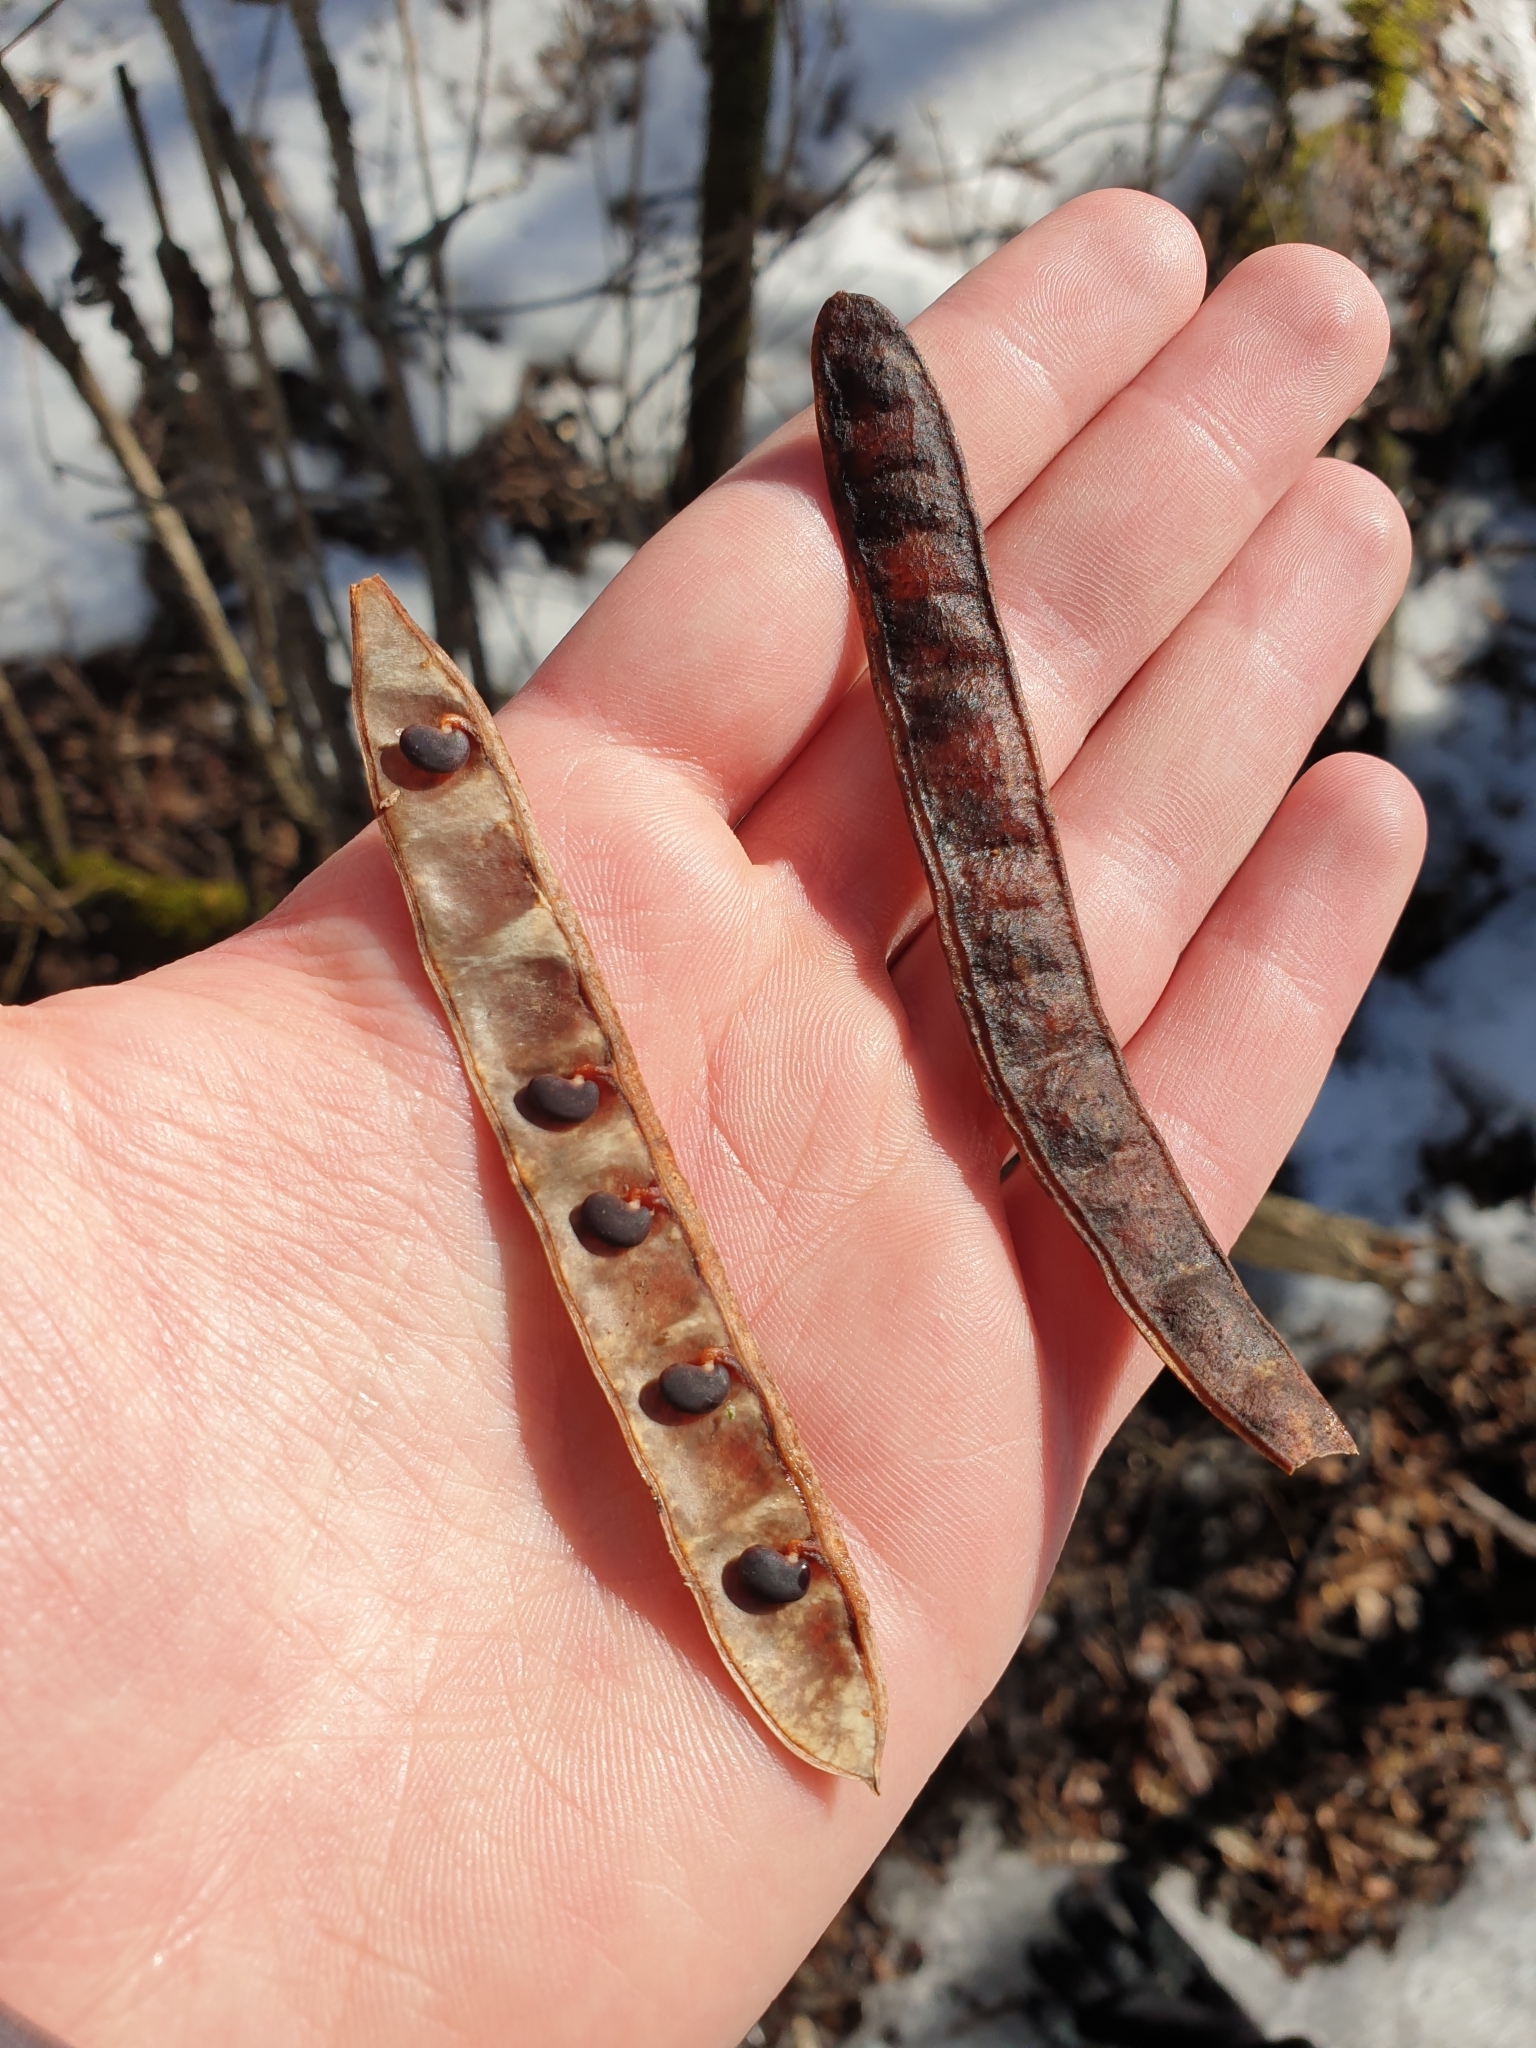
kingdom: Plantae
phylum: Tracheophyta
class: Magnoliopsida
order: Fabales
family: Fabaceae
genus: Robinia
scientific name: Robinia pseudoacacia
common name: Black locust
